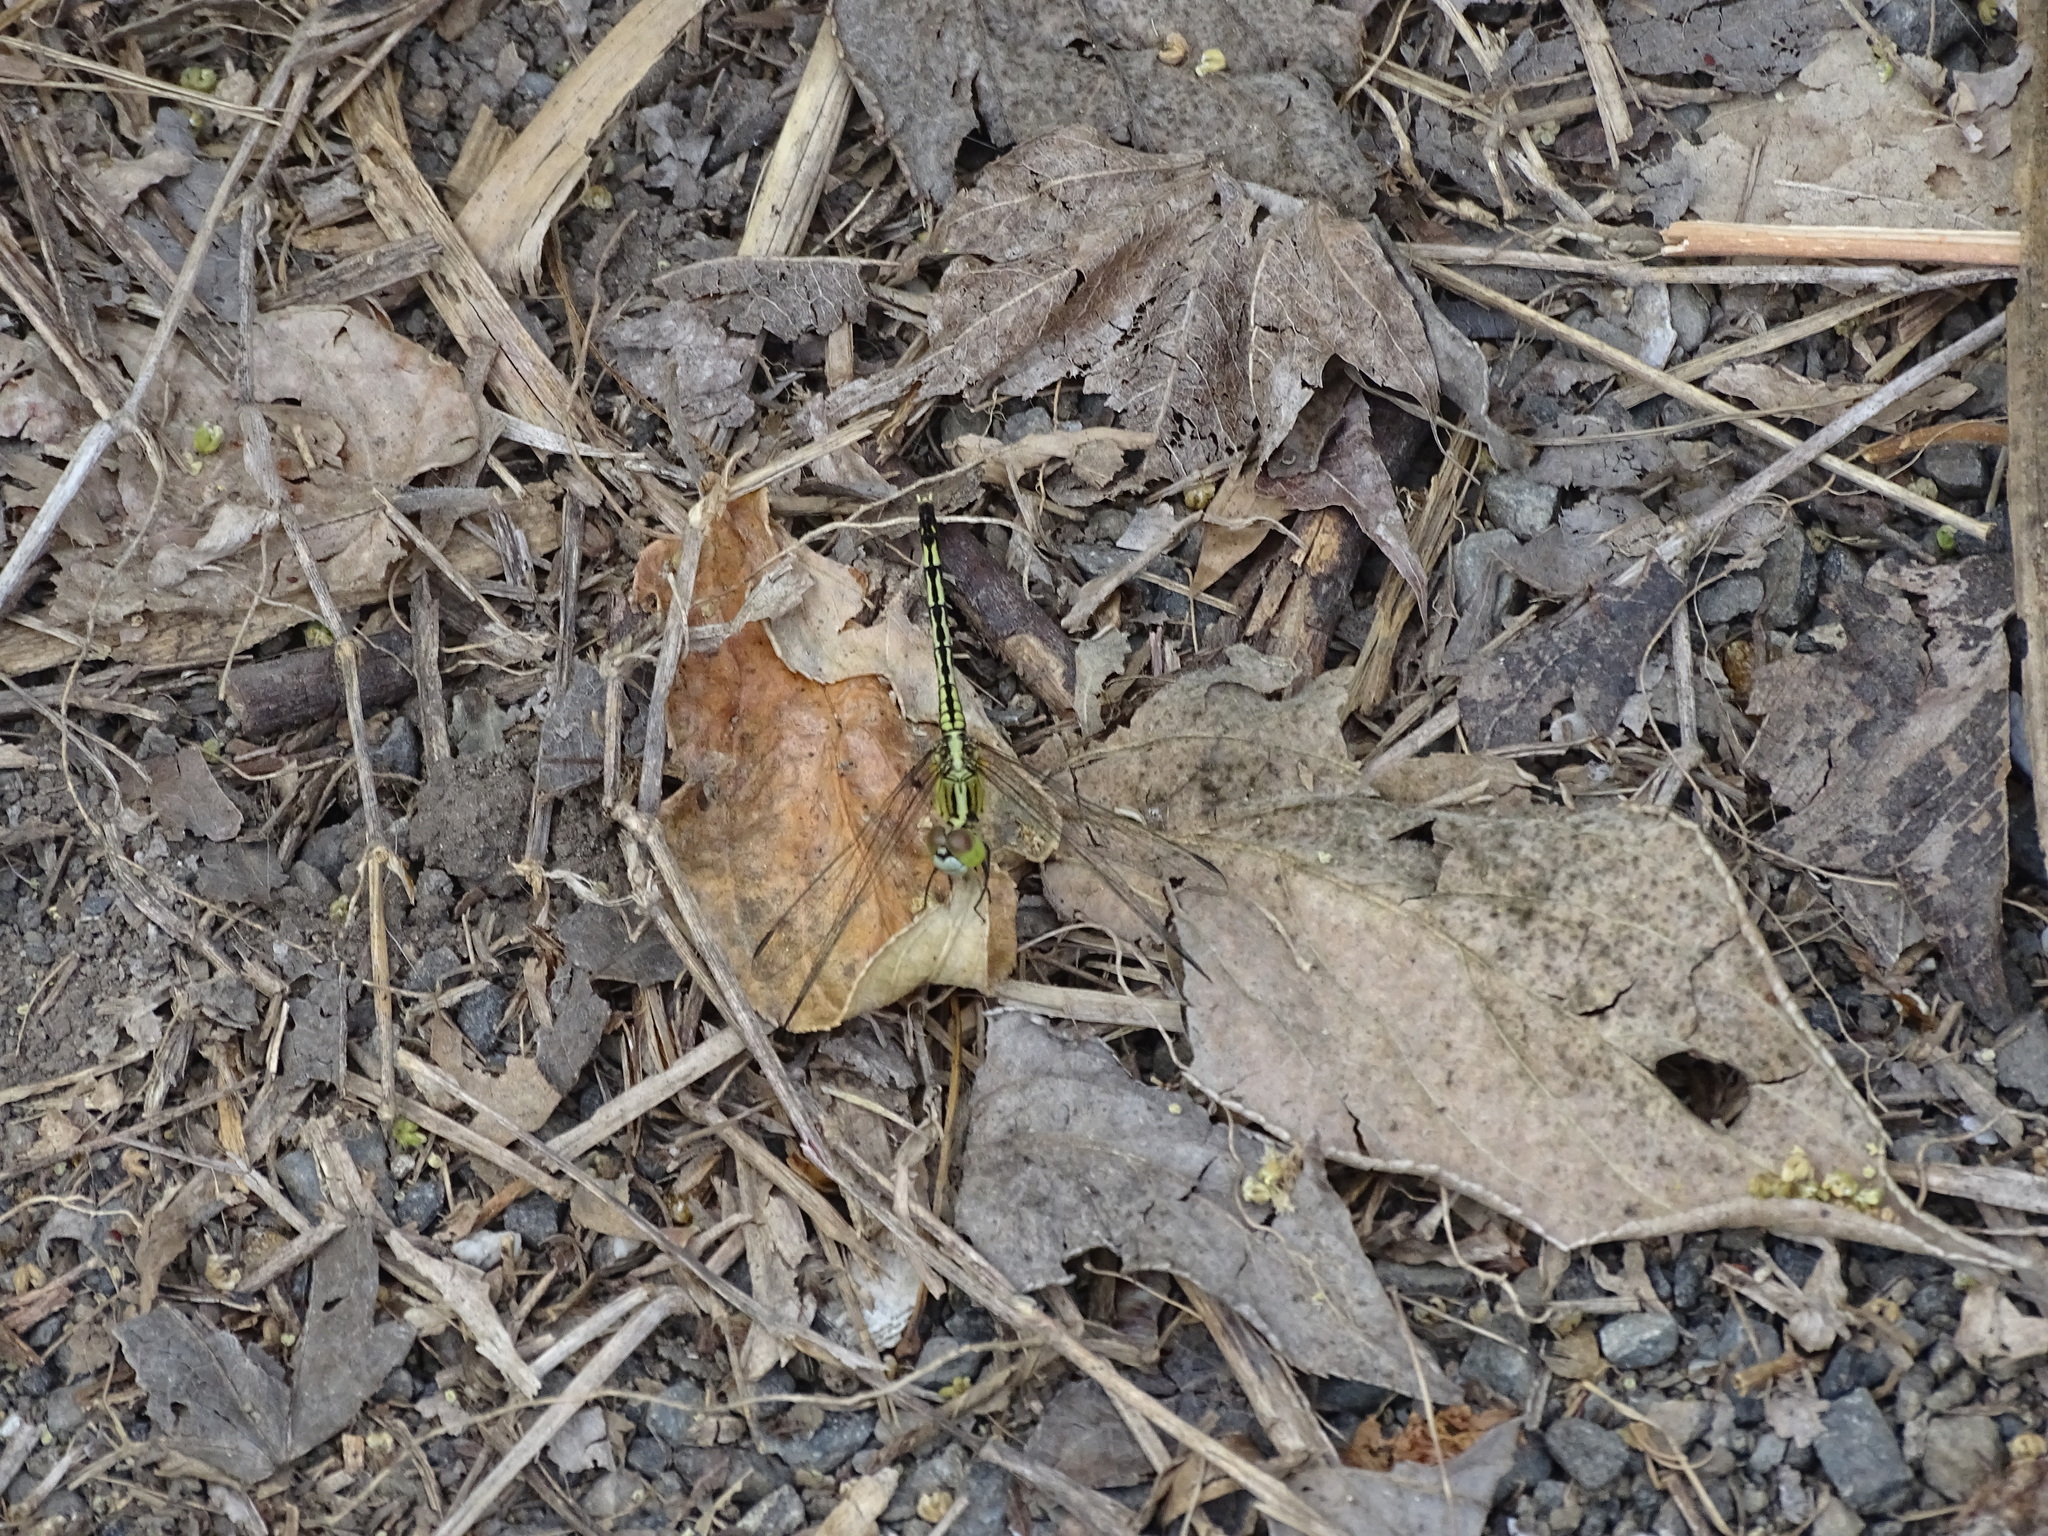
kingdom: Animalia
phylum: Arthropoda
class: Insecta
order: Odonata
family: Libellulidae
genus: Diplacodes
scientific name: Diplacodes trivialis
